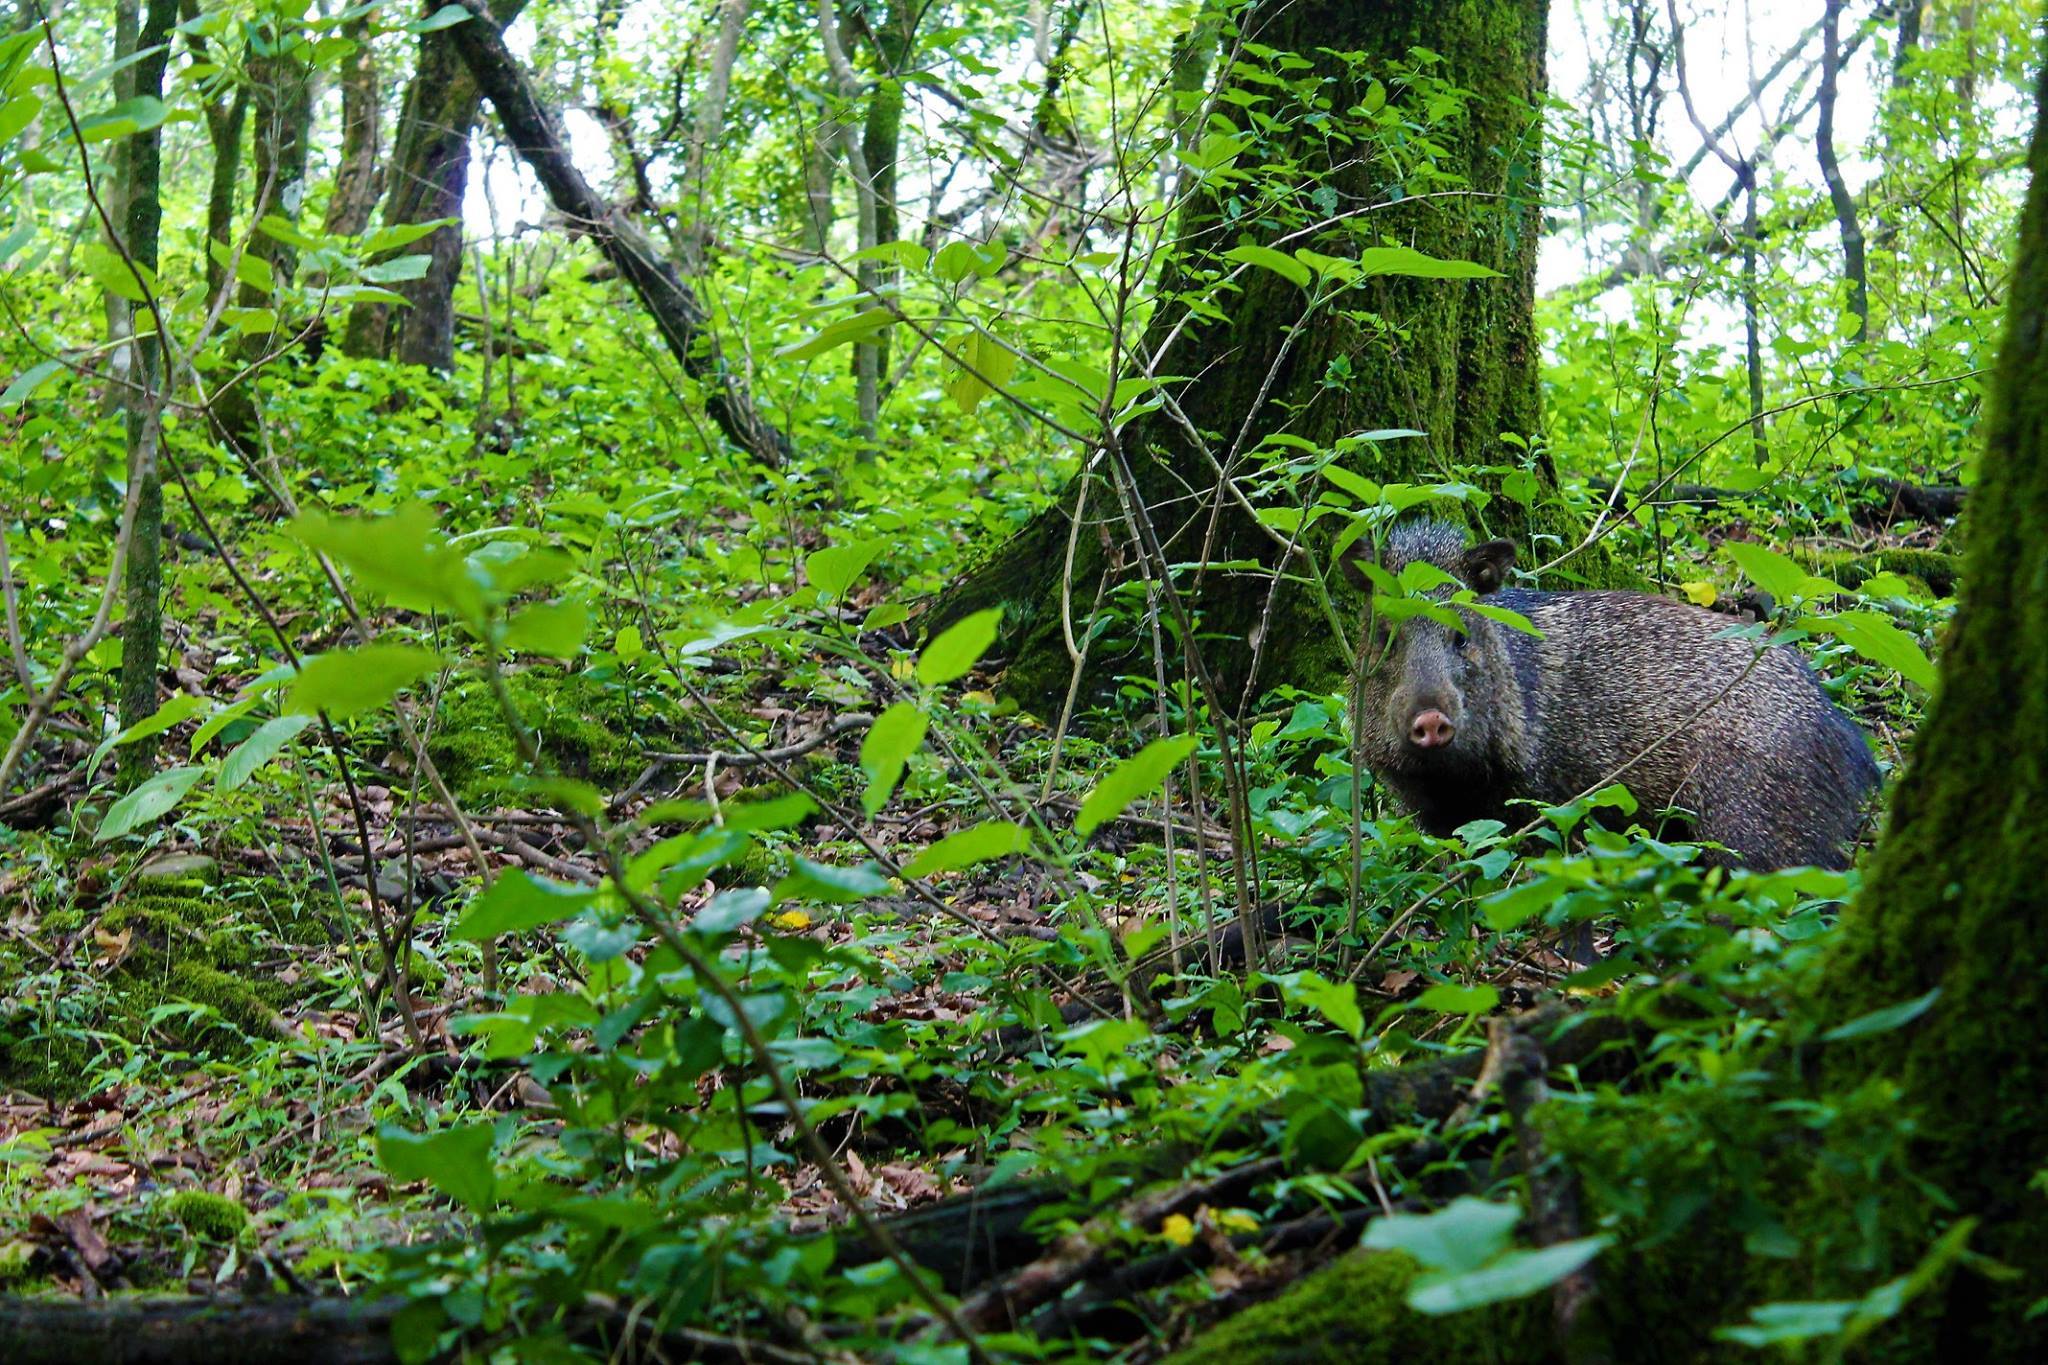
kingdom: Animalia
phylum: Chordata
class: Mammalia
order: Artiodactyla
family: Tayassuidae
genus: Pecari
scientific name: Pecari tajacu
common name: Collared peccary
